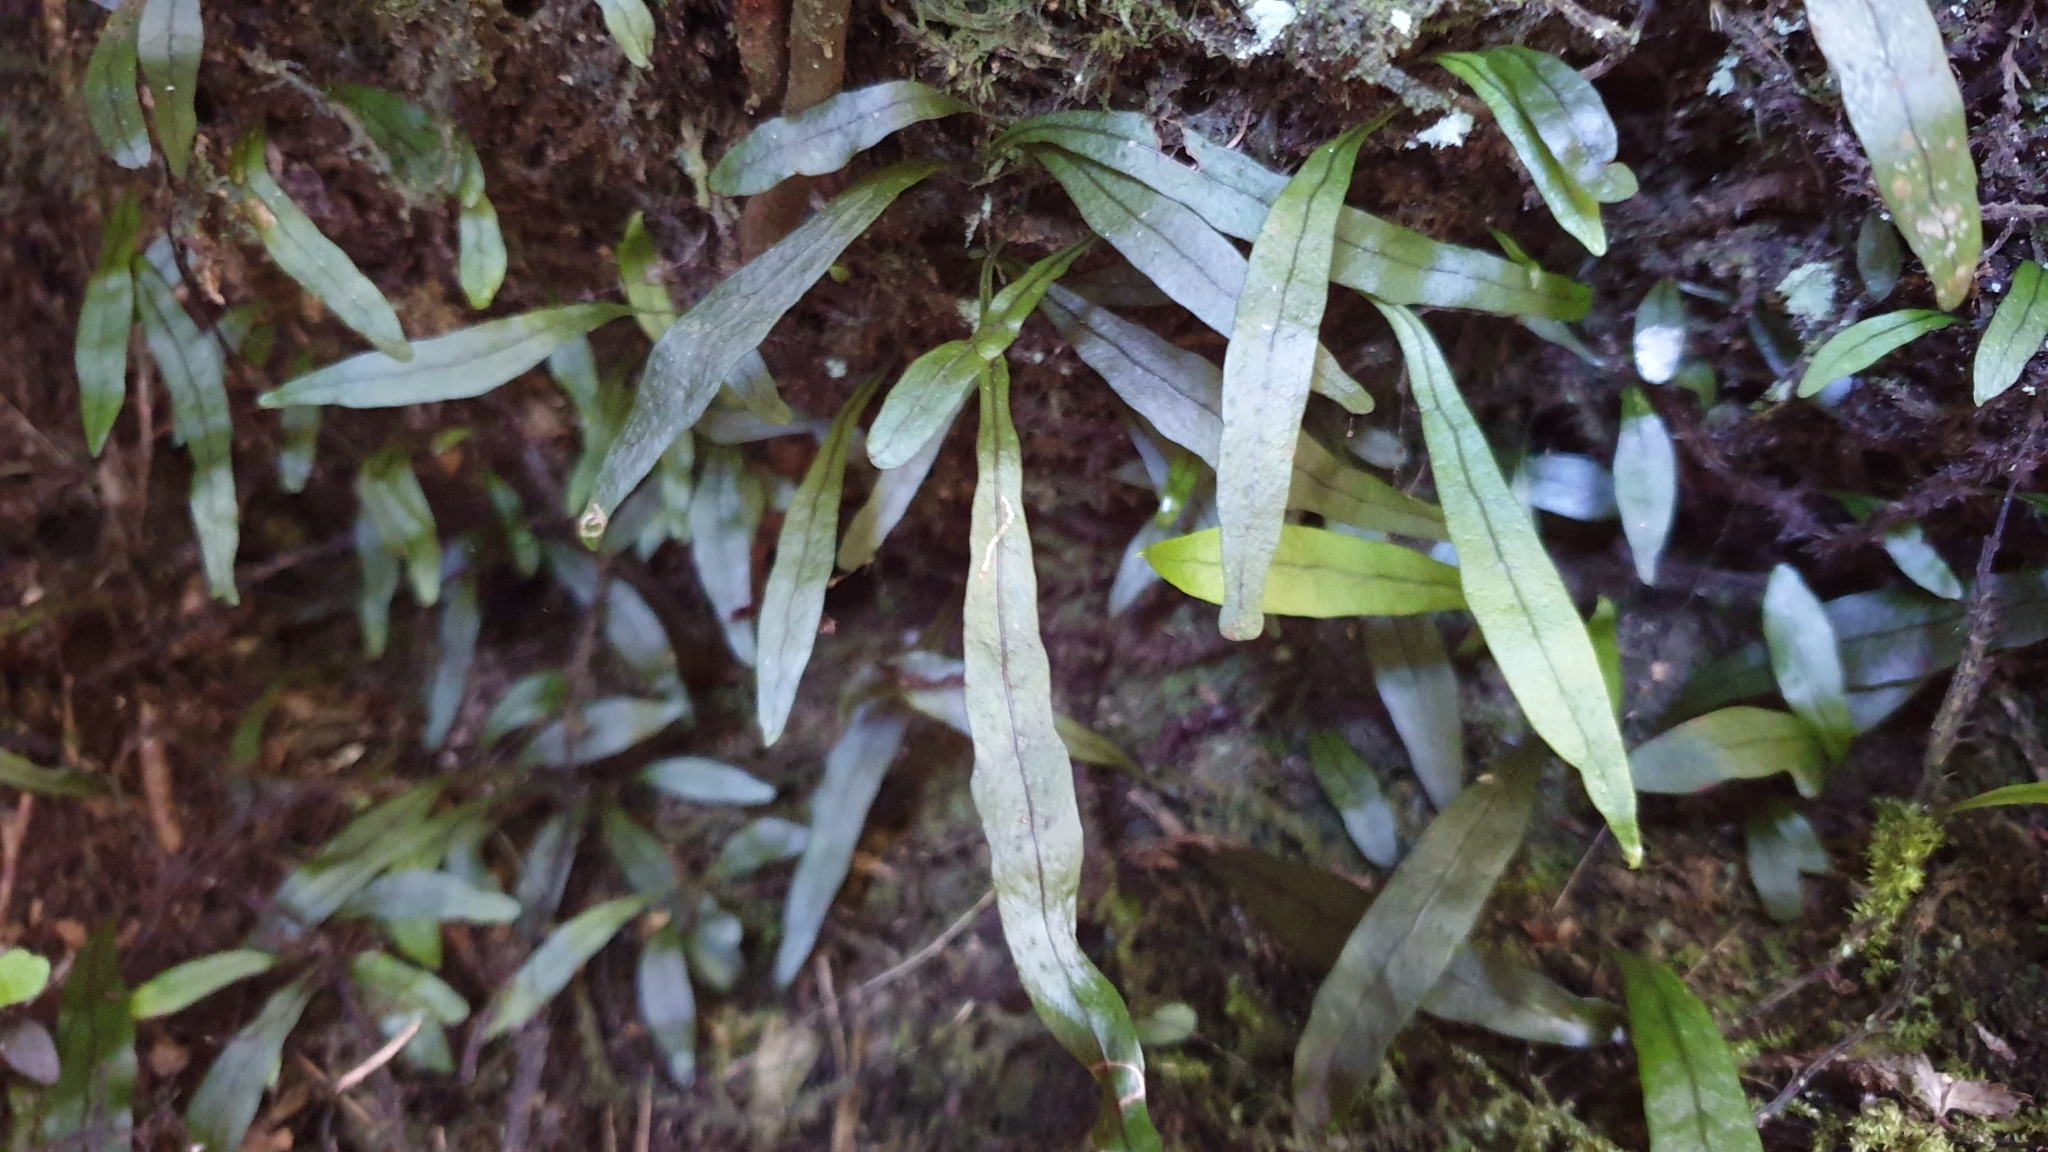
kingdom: Plantae
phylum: Tracheophyta
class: Polypodiopsida
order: Polypodiales
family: Polypodiaceae
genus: Loxogramme
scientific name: Loxogramme dictyopteris
